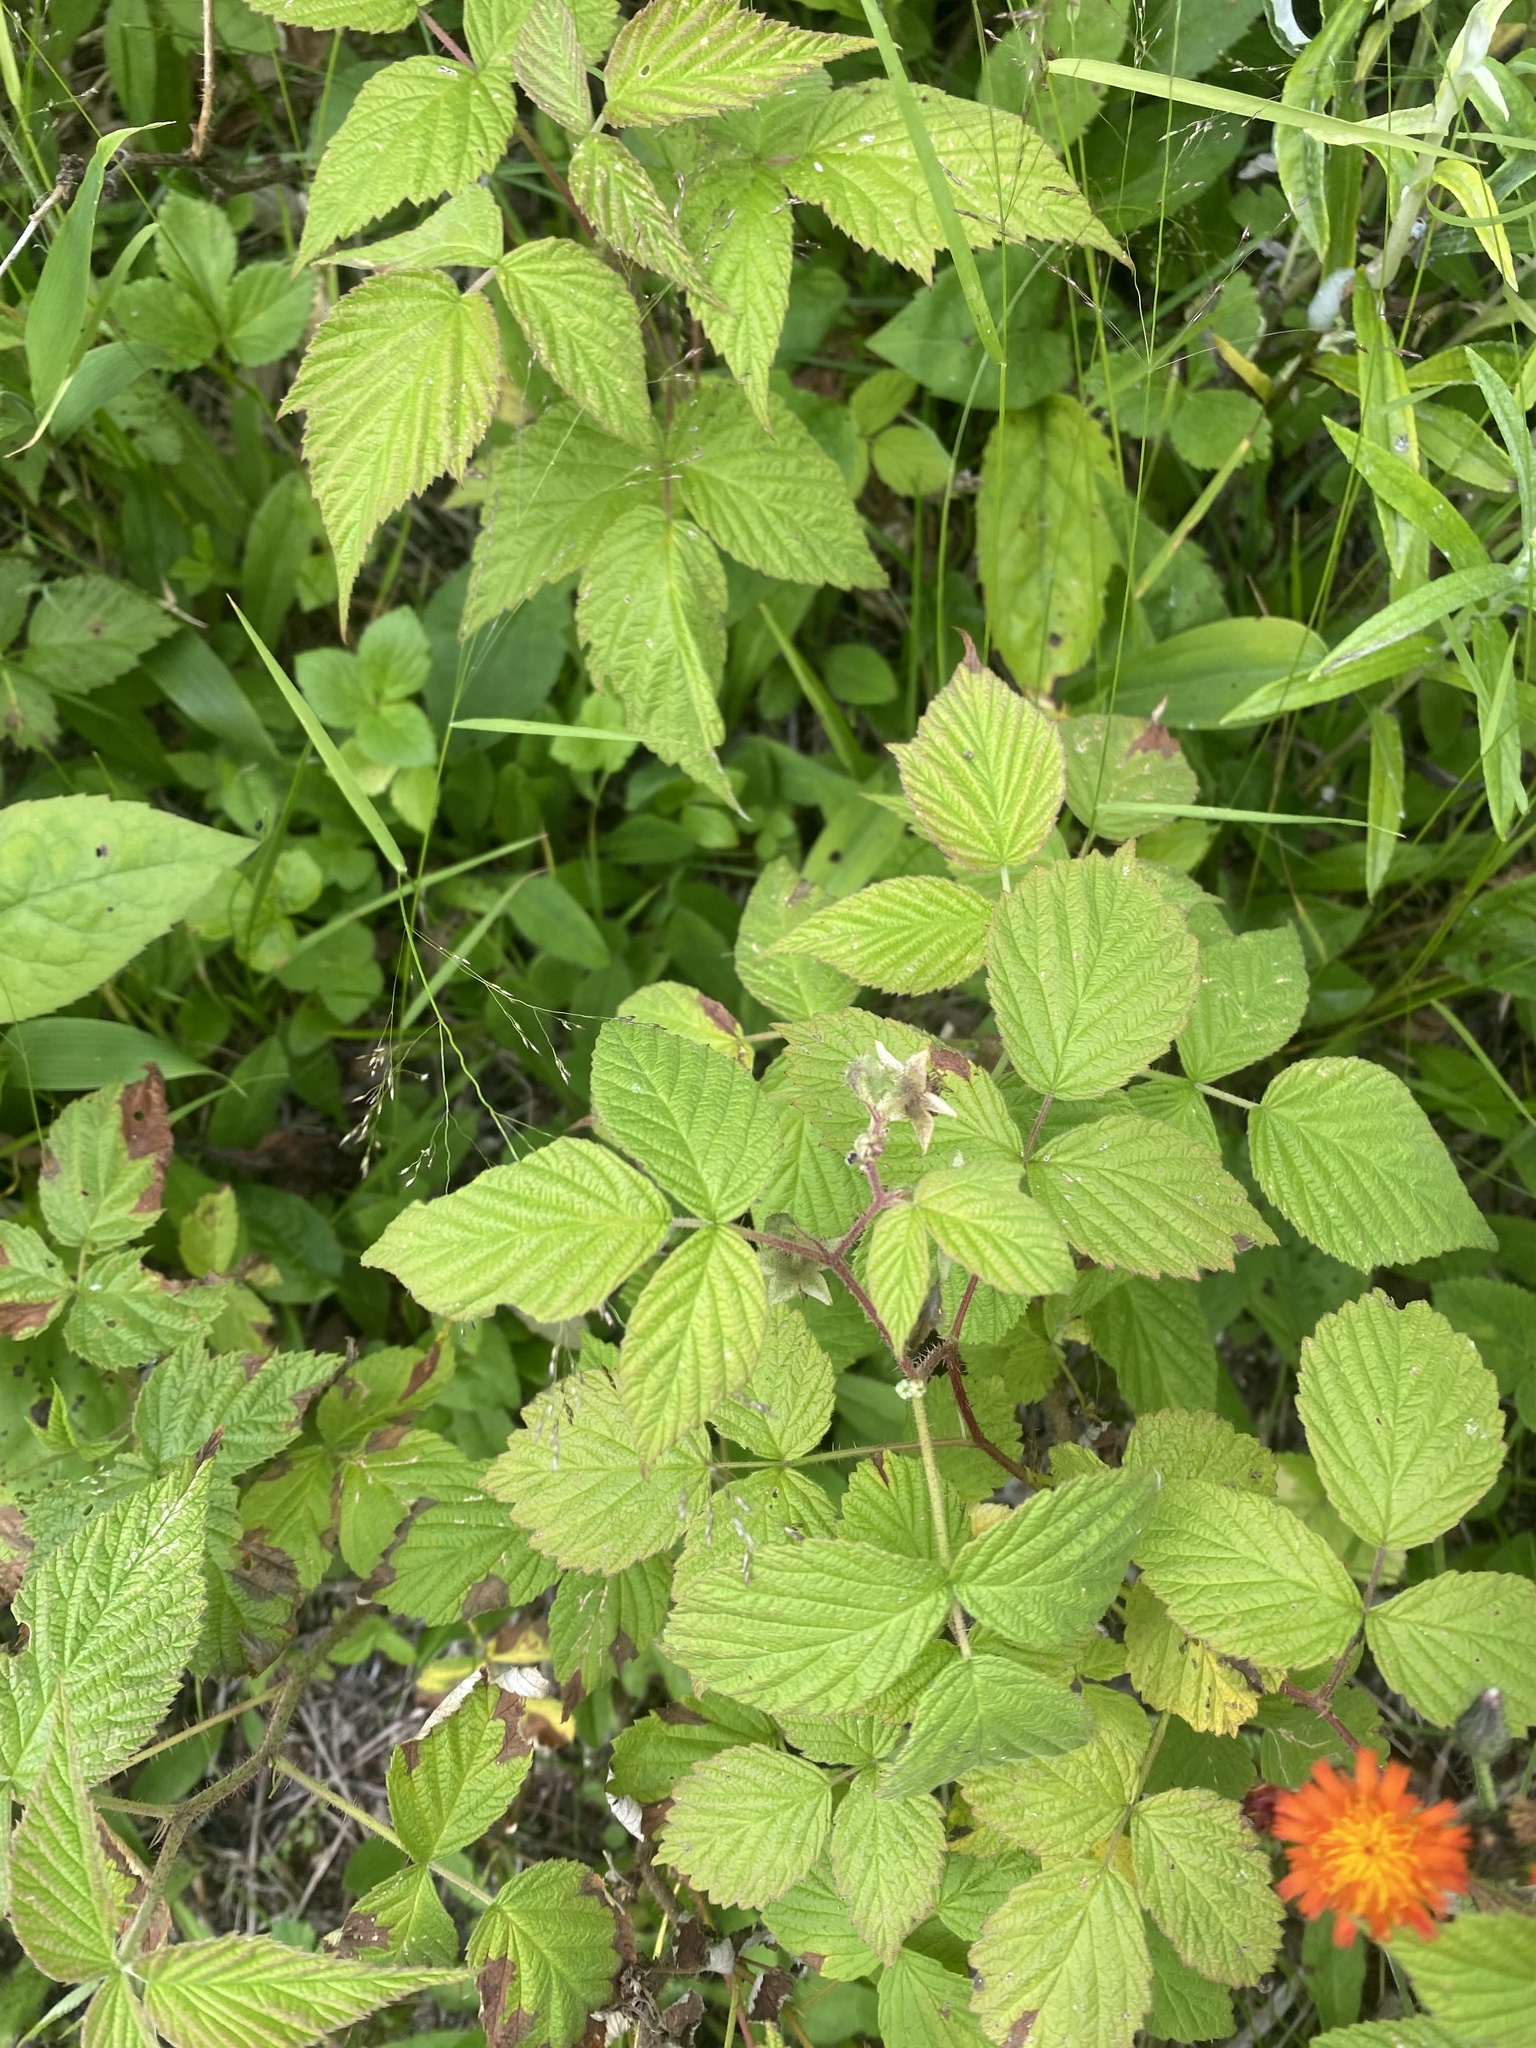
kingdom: Plantae
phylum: Tracheophyta
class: Magnoliopsida
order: Rosales
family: Rosaceae
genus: Rubus
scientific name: Rubus sachalinensis
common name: Red raspberry
